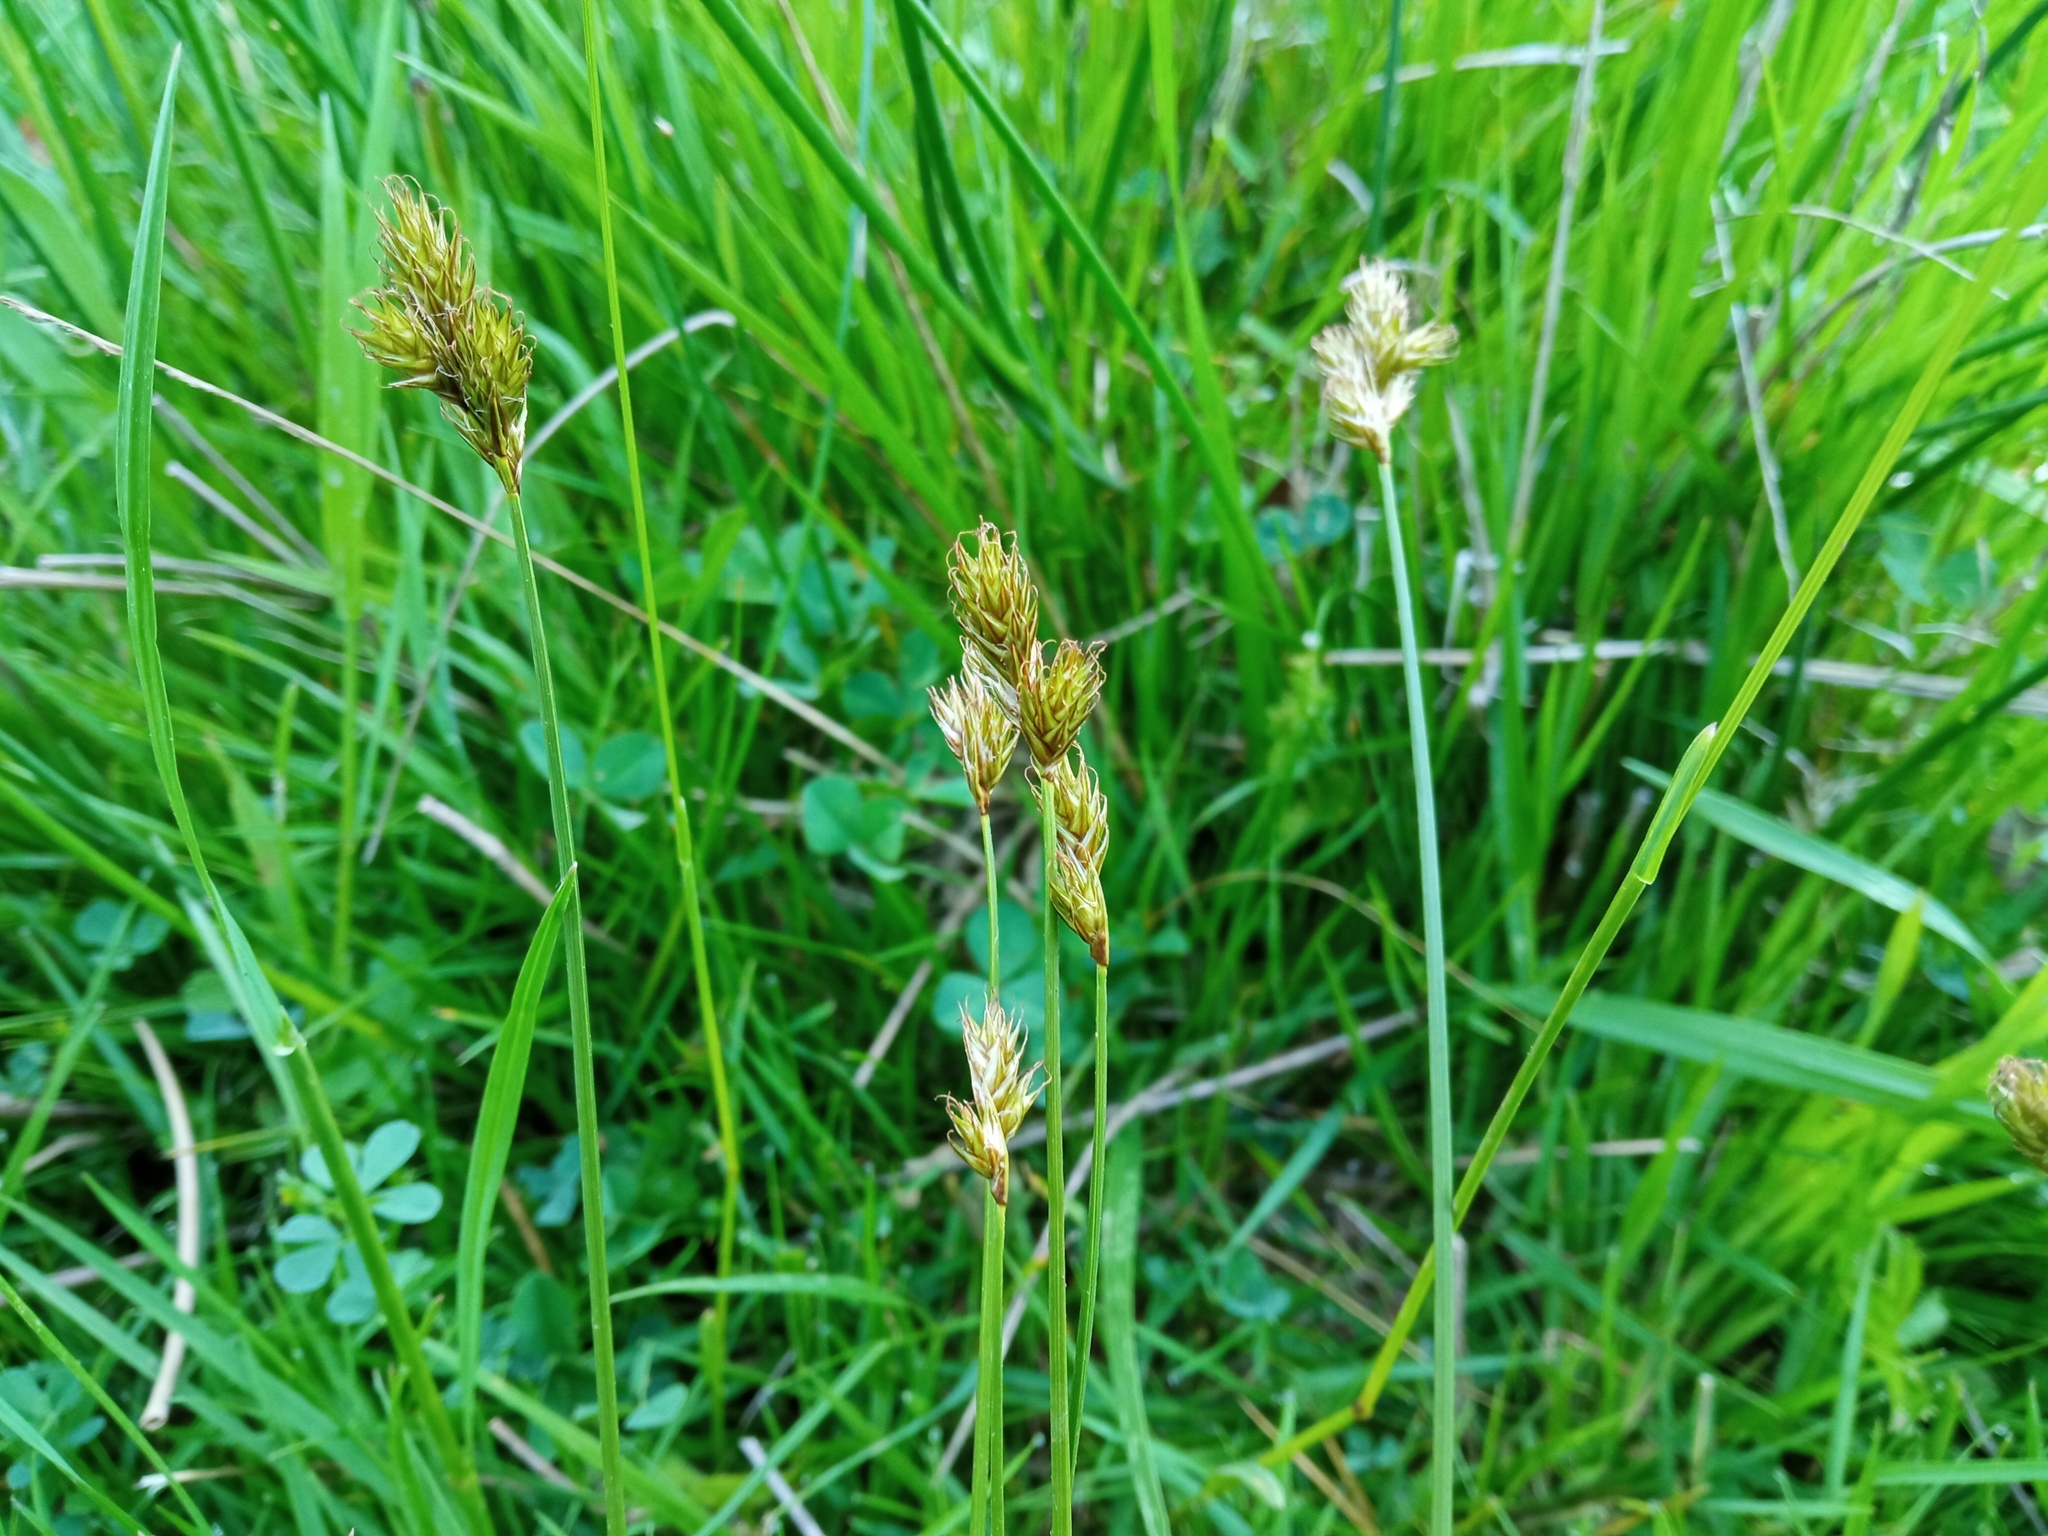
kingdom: Plantae
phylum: Tracheophyta
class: Liliopsida
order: Poales
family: Cyperaceae
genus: Carex
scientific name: Carex leporina
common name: Oval sedge
